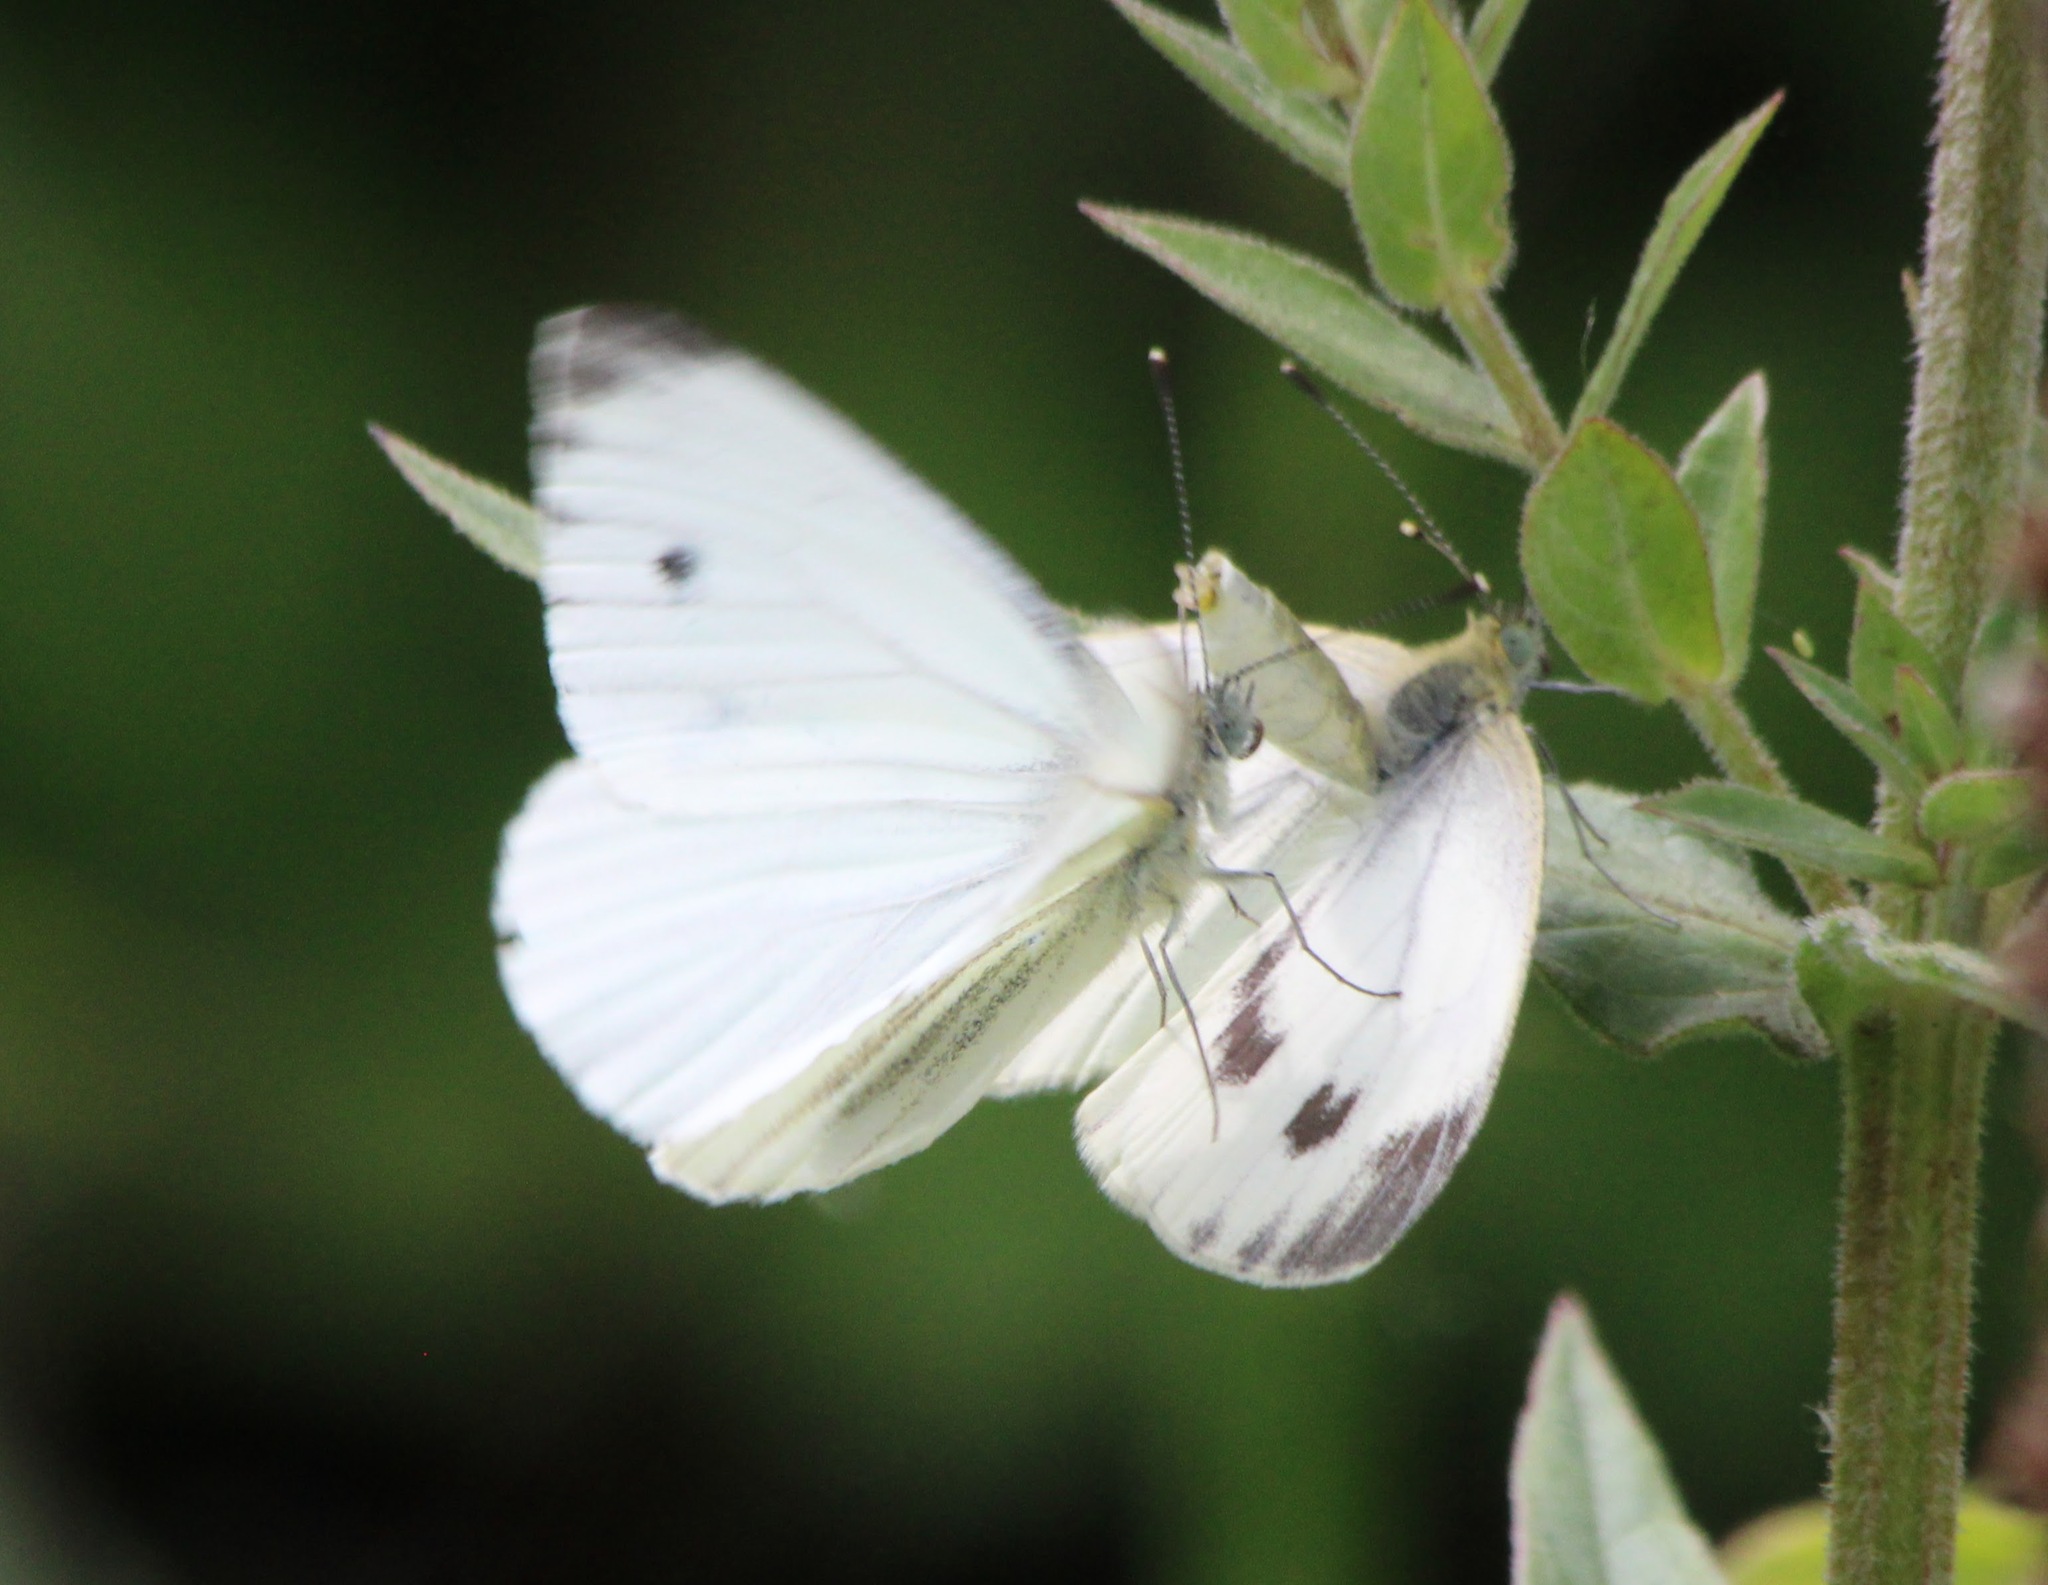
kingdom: Animalia
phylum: Arthropoda
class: Insecta
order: Lepidoptera
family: Pieridae
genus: Pieris
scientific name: Pieris napi
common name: Green-veined white
